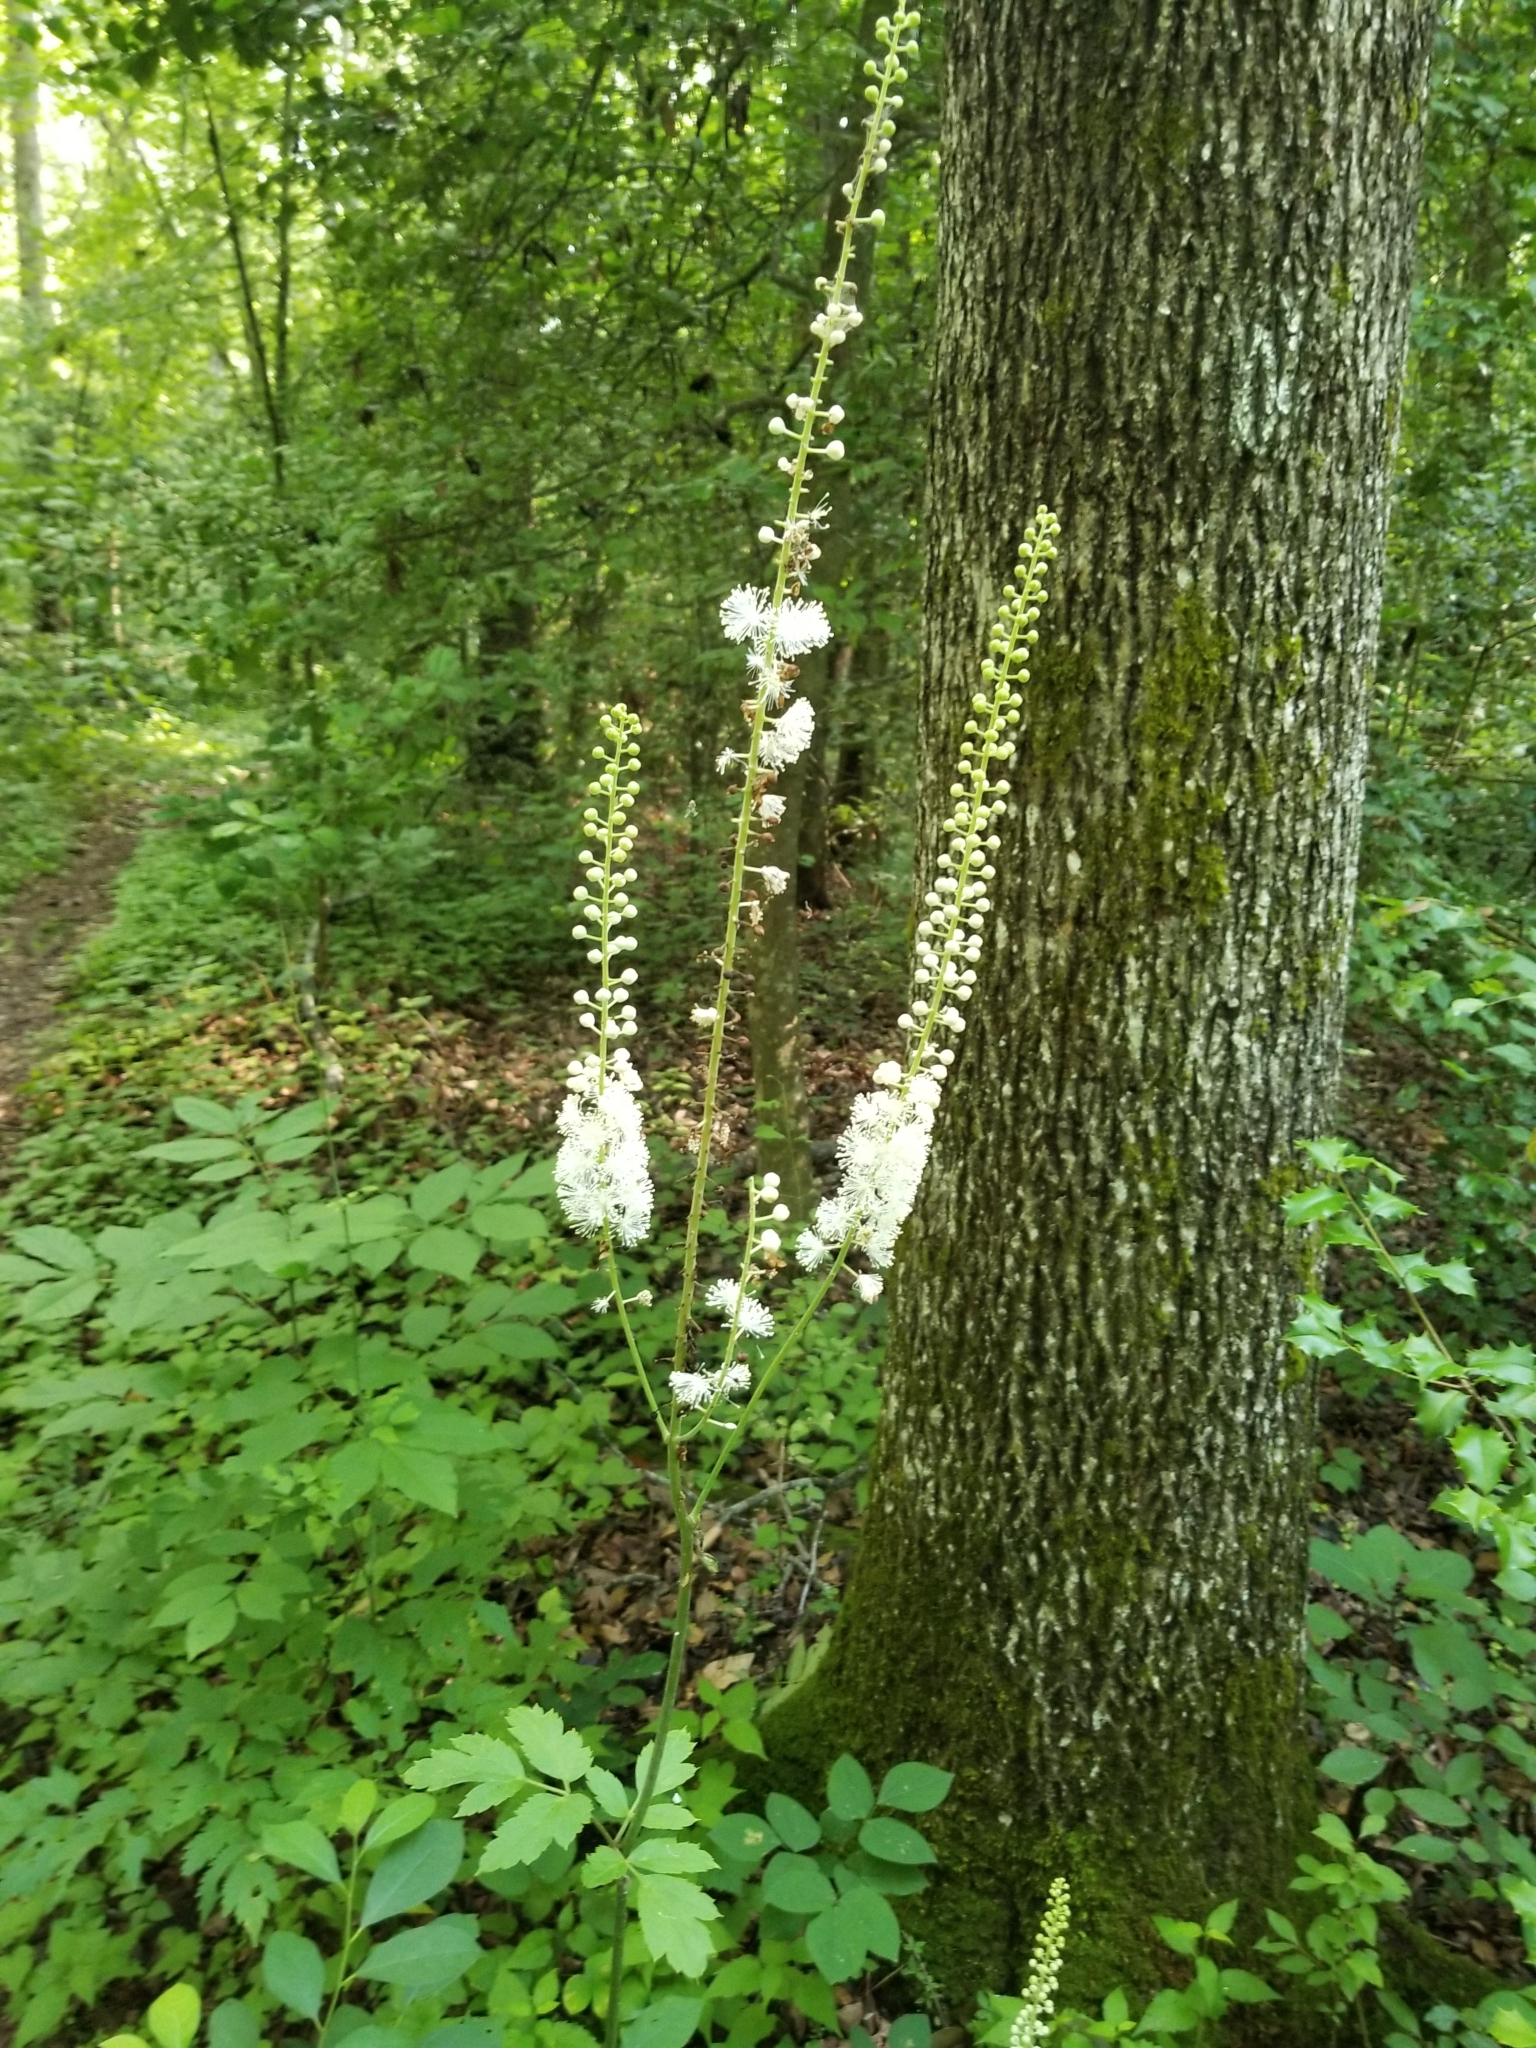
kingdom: Plantae
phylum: Tracheophyta
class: Magnoliopsida
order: Ranunculales
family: Ranunculaceae
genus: Actaea
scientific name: Actaea racemosa
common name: Black cohosh
